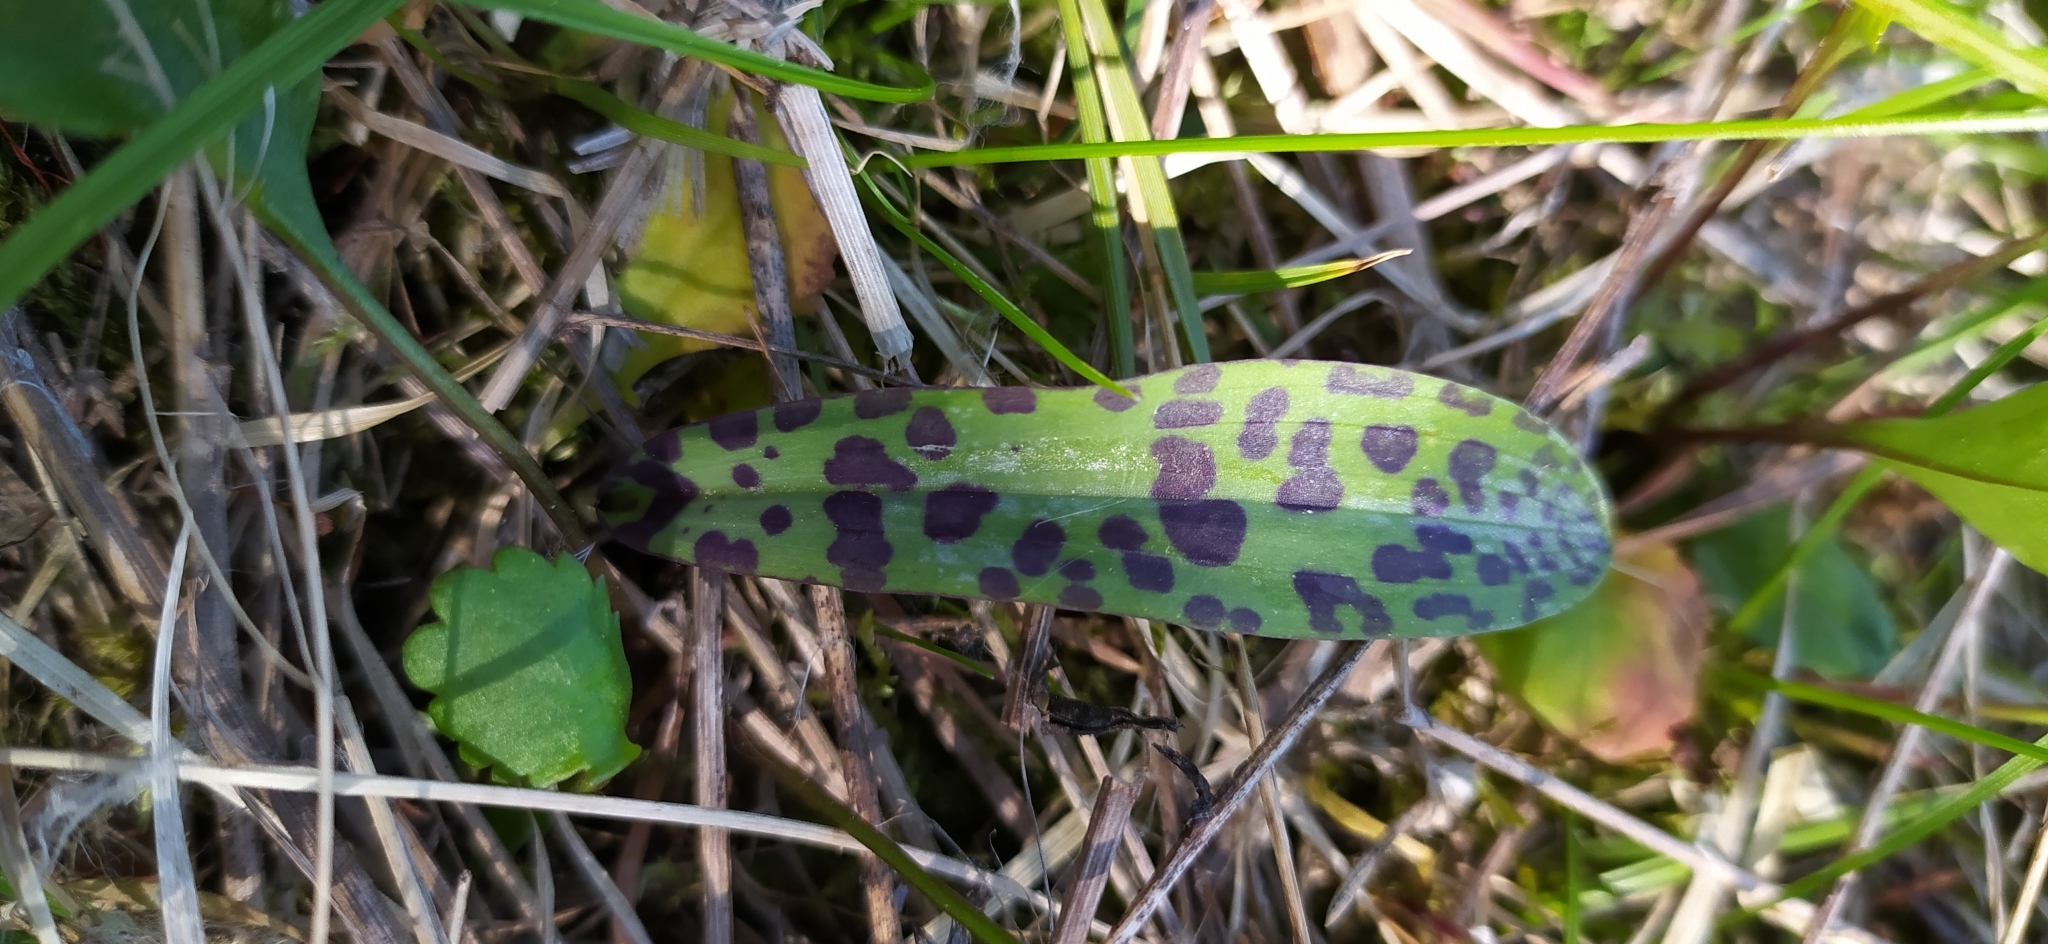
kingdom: Plantae
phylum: Tracheophyta
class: Liliopsida
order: Asparagales
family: Orchidaceae
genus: Dactylorhiza
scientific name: Dactylorhiza maculata
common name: Heath spotted-orchid
